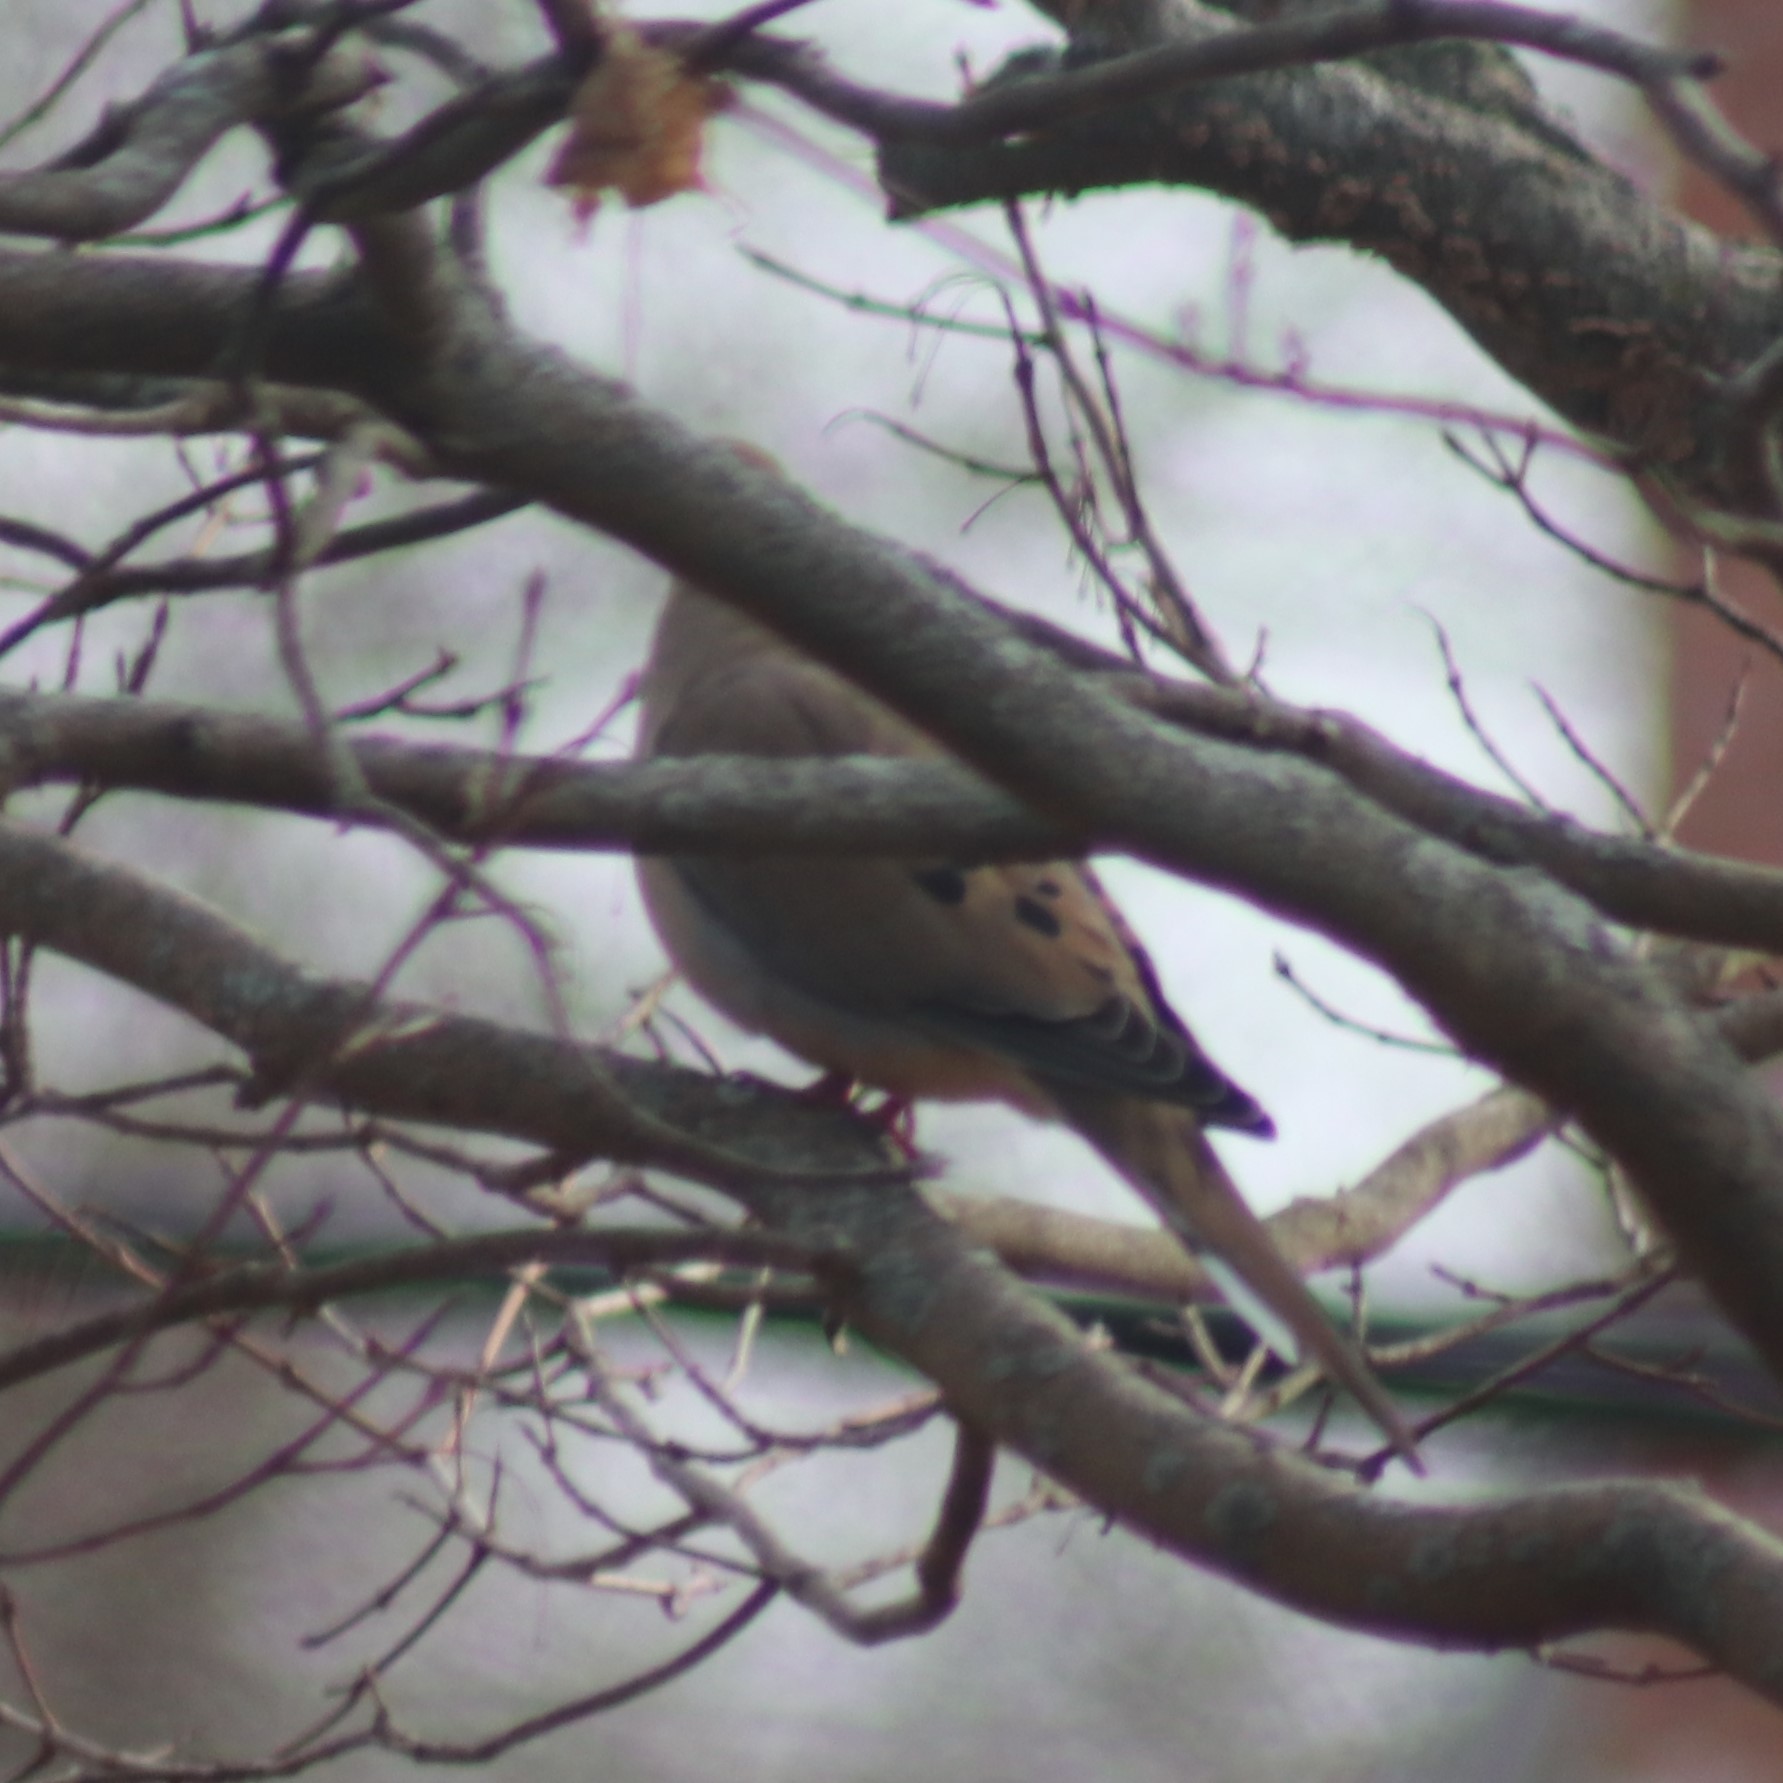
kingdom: Animalia
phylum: Chordata
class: Aves
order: Columbiformes
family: Columbidae
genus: Zenaida
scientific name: Zenaida macroura
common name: Mourning dove
